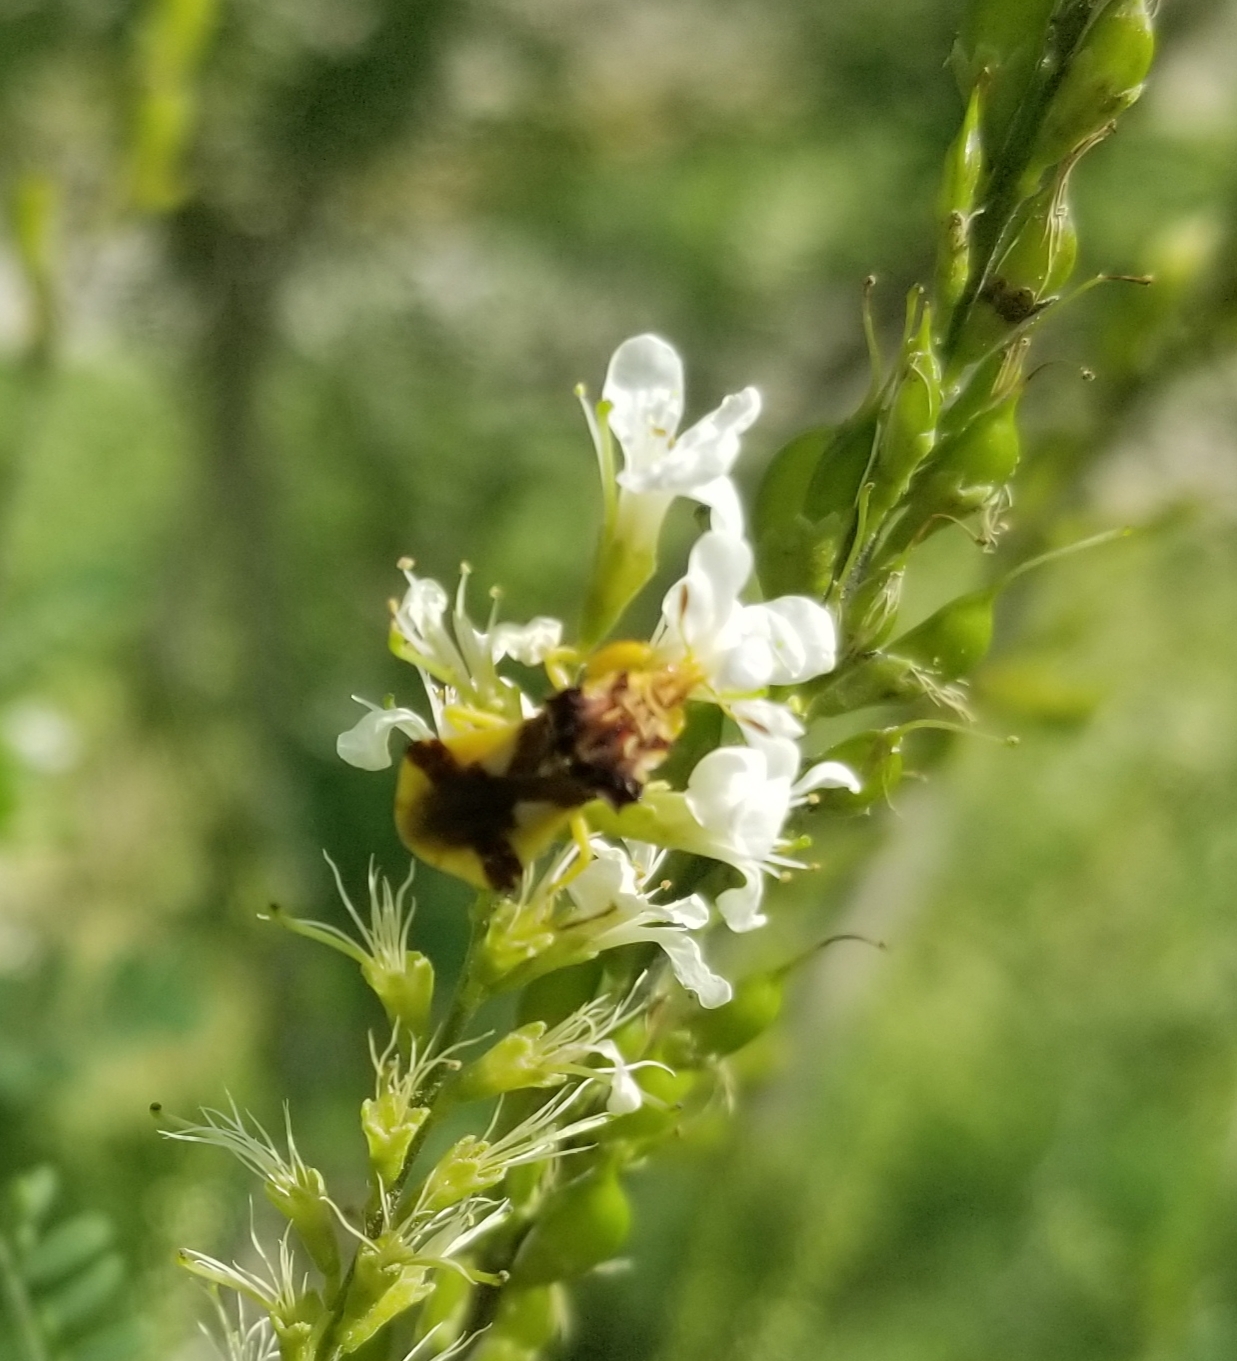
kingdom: Animalia
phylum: Arthropoda
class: Insecta
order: Hemiptera
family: Reduviidae
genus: Phymata
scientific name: Phymata americana
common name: Jagged ambush bug
